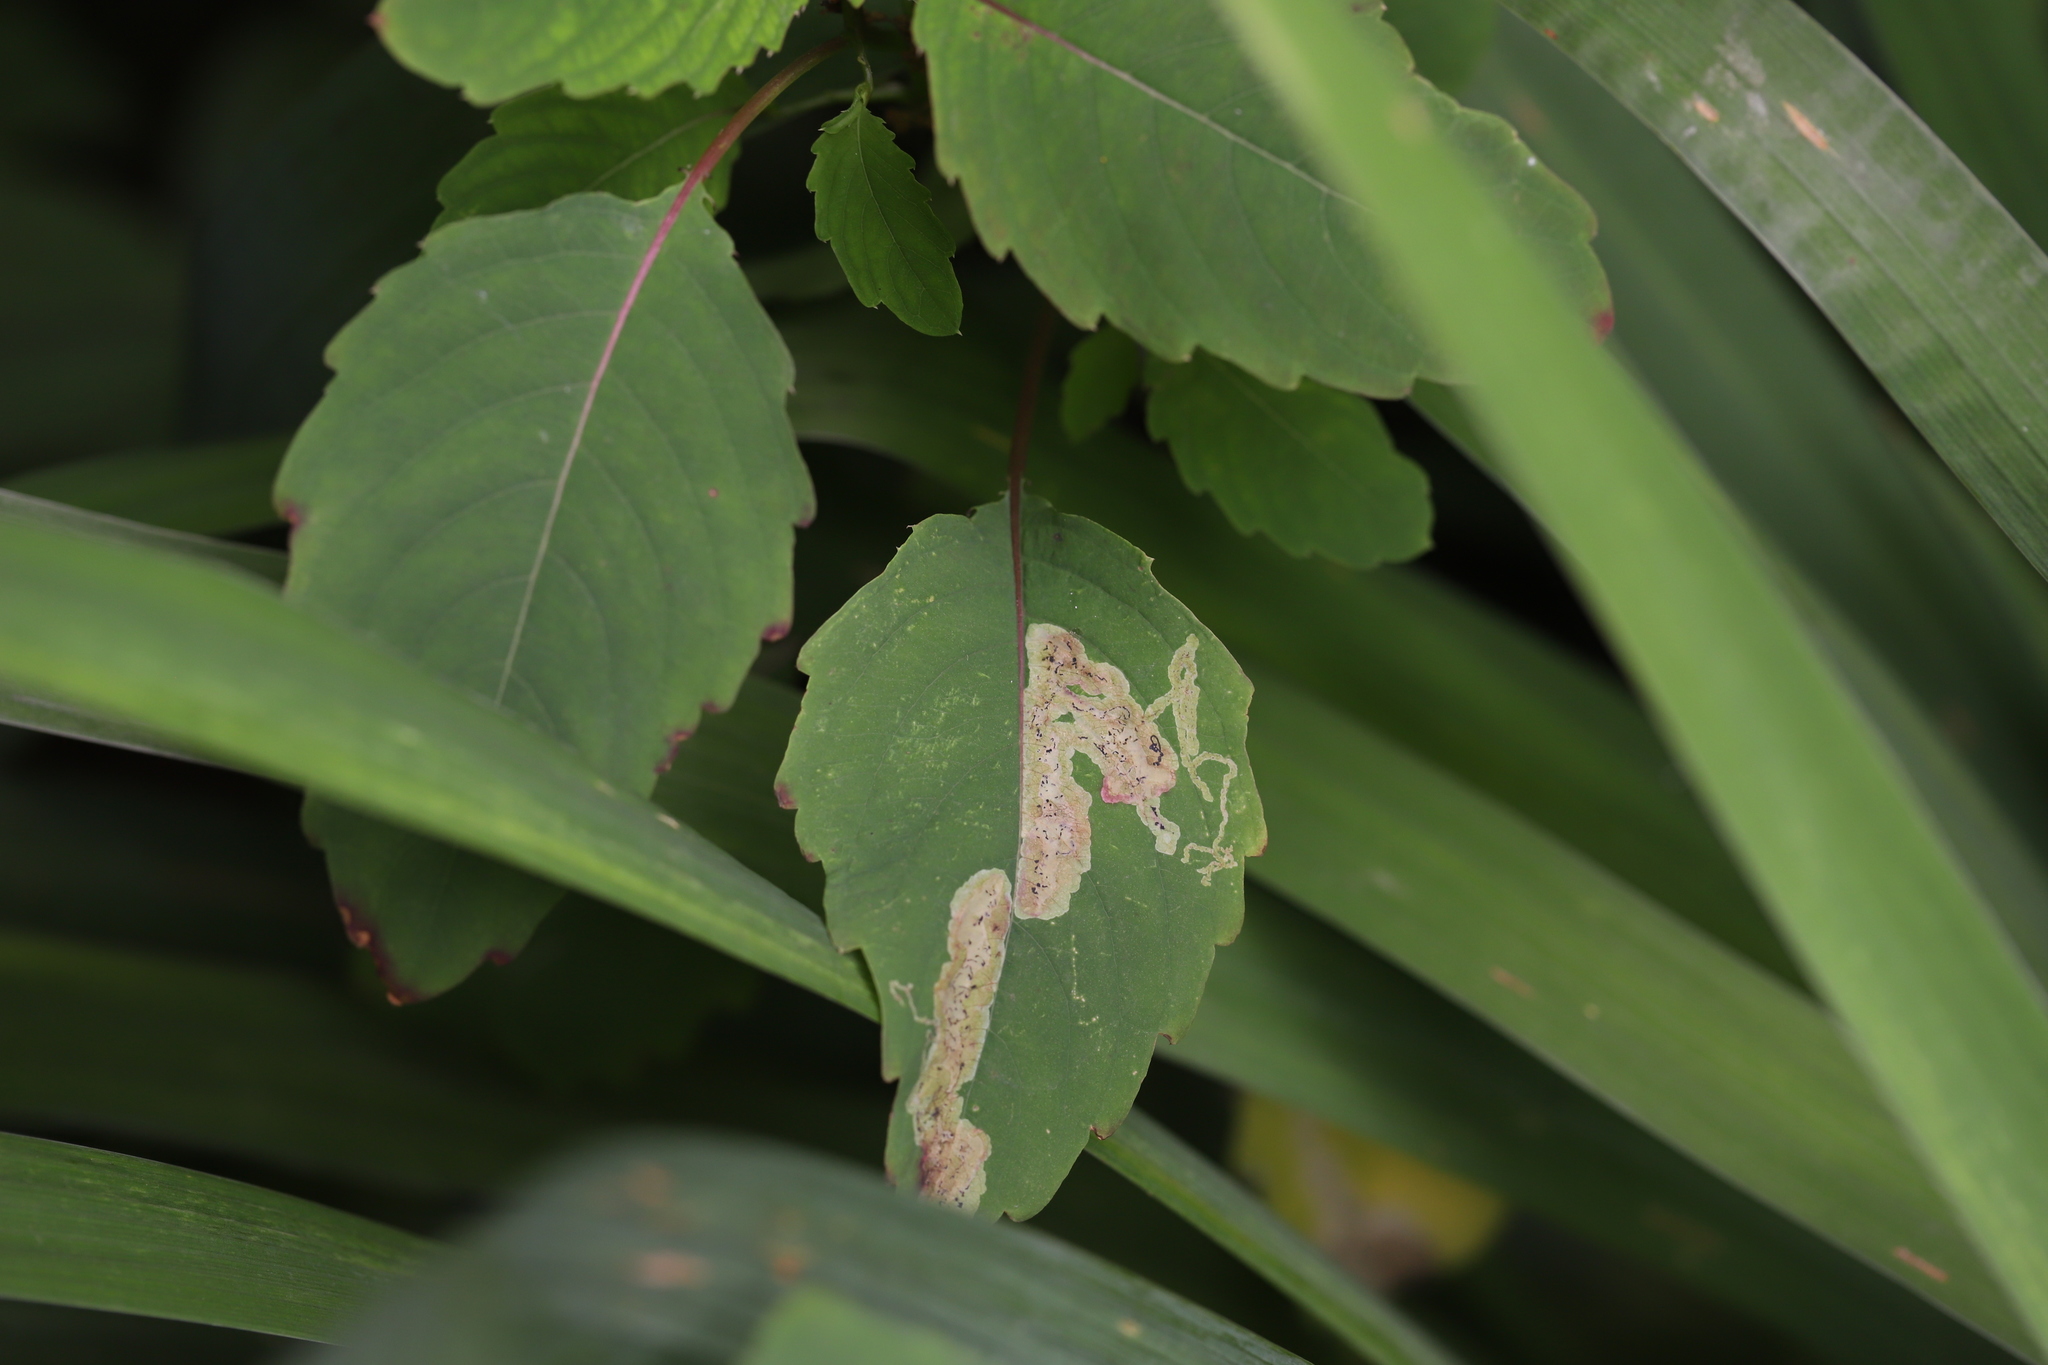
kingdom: Animalia
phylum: Arthropoda
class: Insecta
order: Diptera
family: Agromyzidae
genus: Phytoliriomyza
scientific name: Phytoliriomyza melampyga
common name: Jewelweed leaf-miner fly
